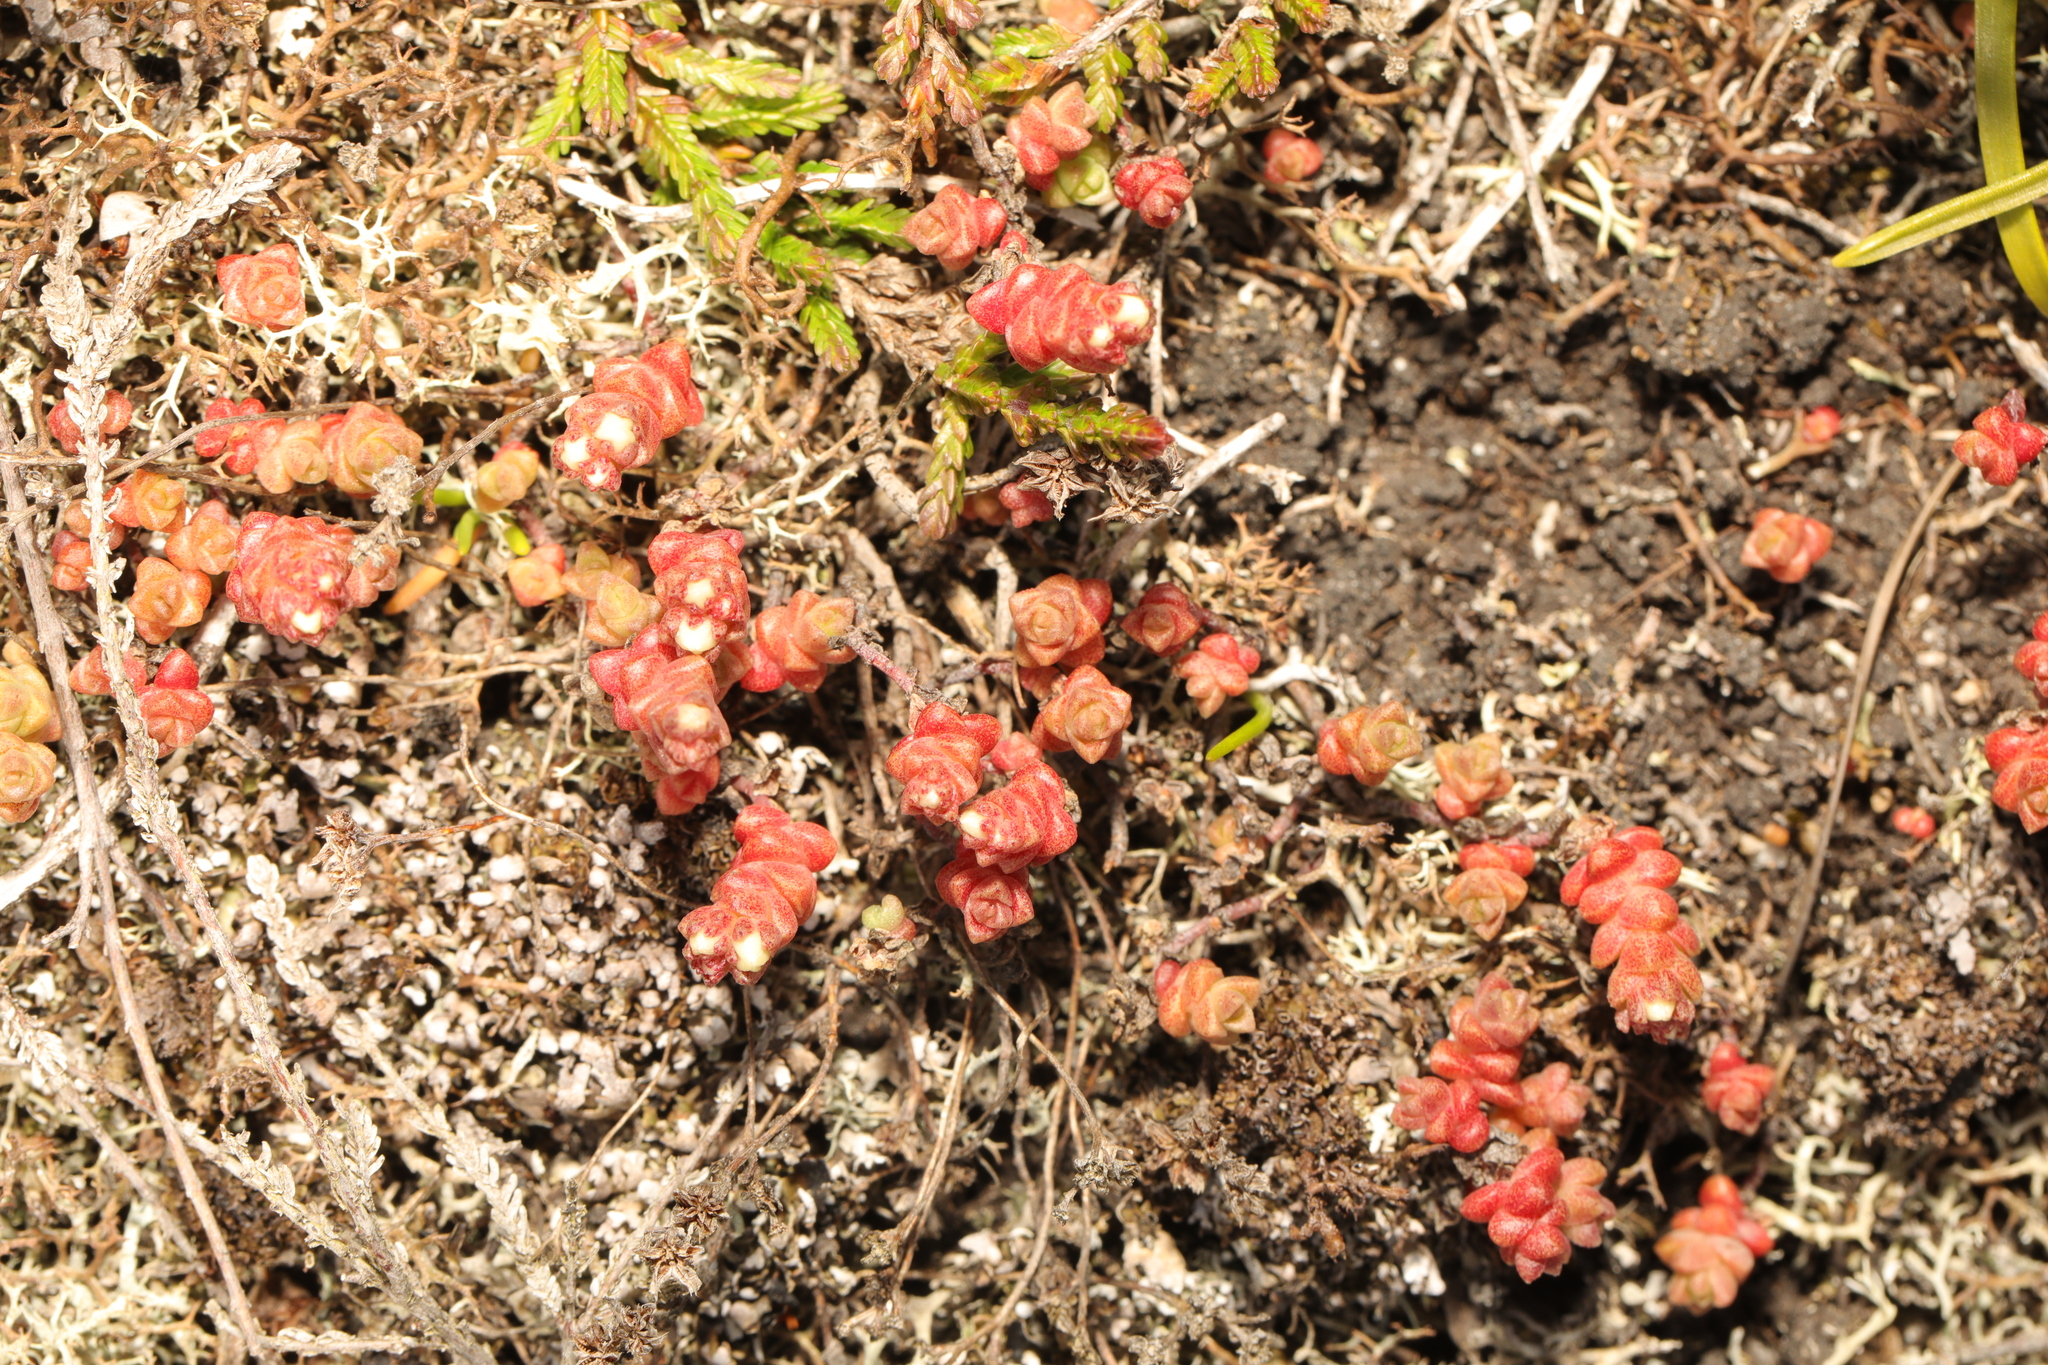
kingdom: Plantae
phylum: Tracheophyta
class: Magnoliopsida
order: Saxifragales
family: Crassulaceae
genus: Sedum
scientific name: Sedum anglicum
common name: English stonecrop
